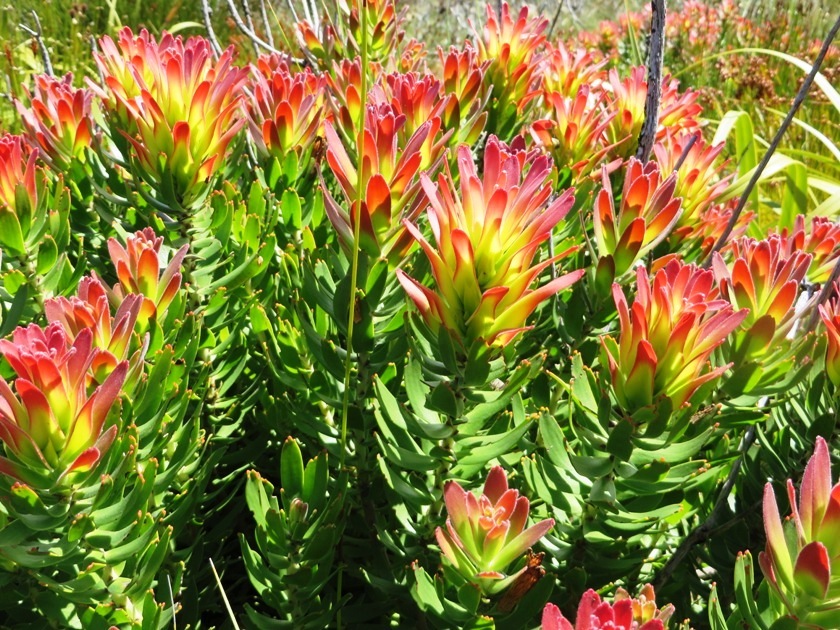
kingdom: Plantae
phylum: Tracheophyta
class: Magnoliopsida
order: Proteales
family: Proteaceae
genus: Mimetes
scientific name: Mimetes cucullatus
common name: Common pagoda
